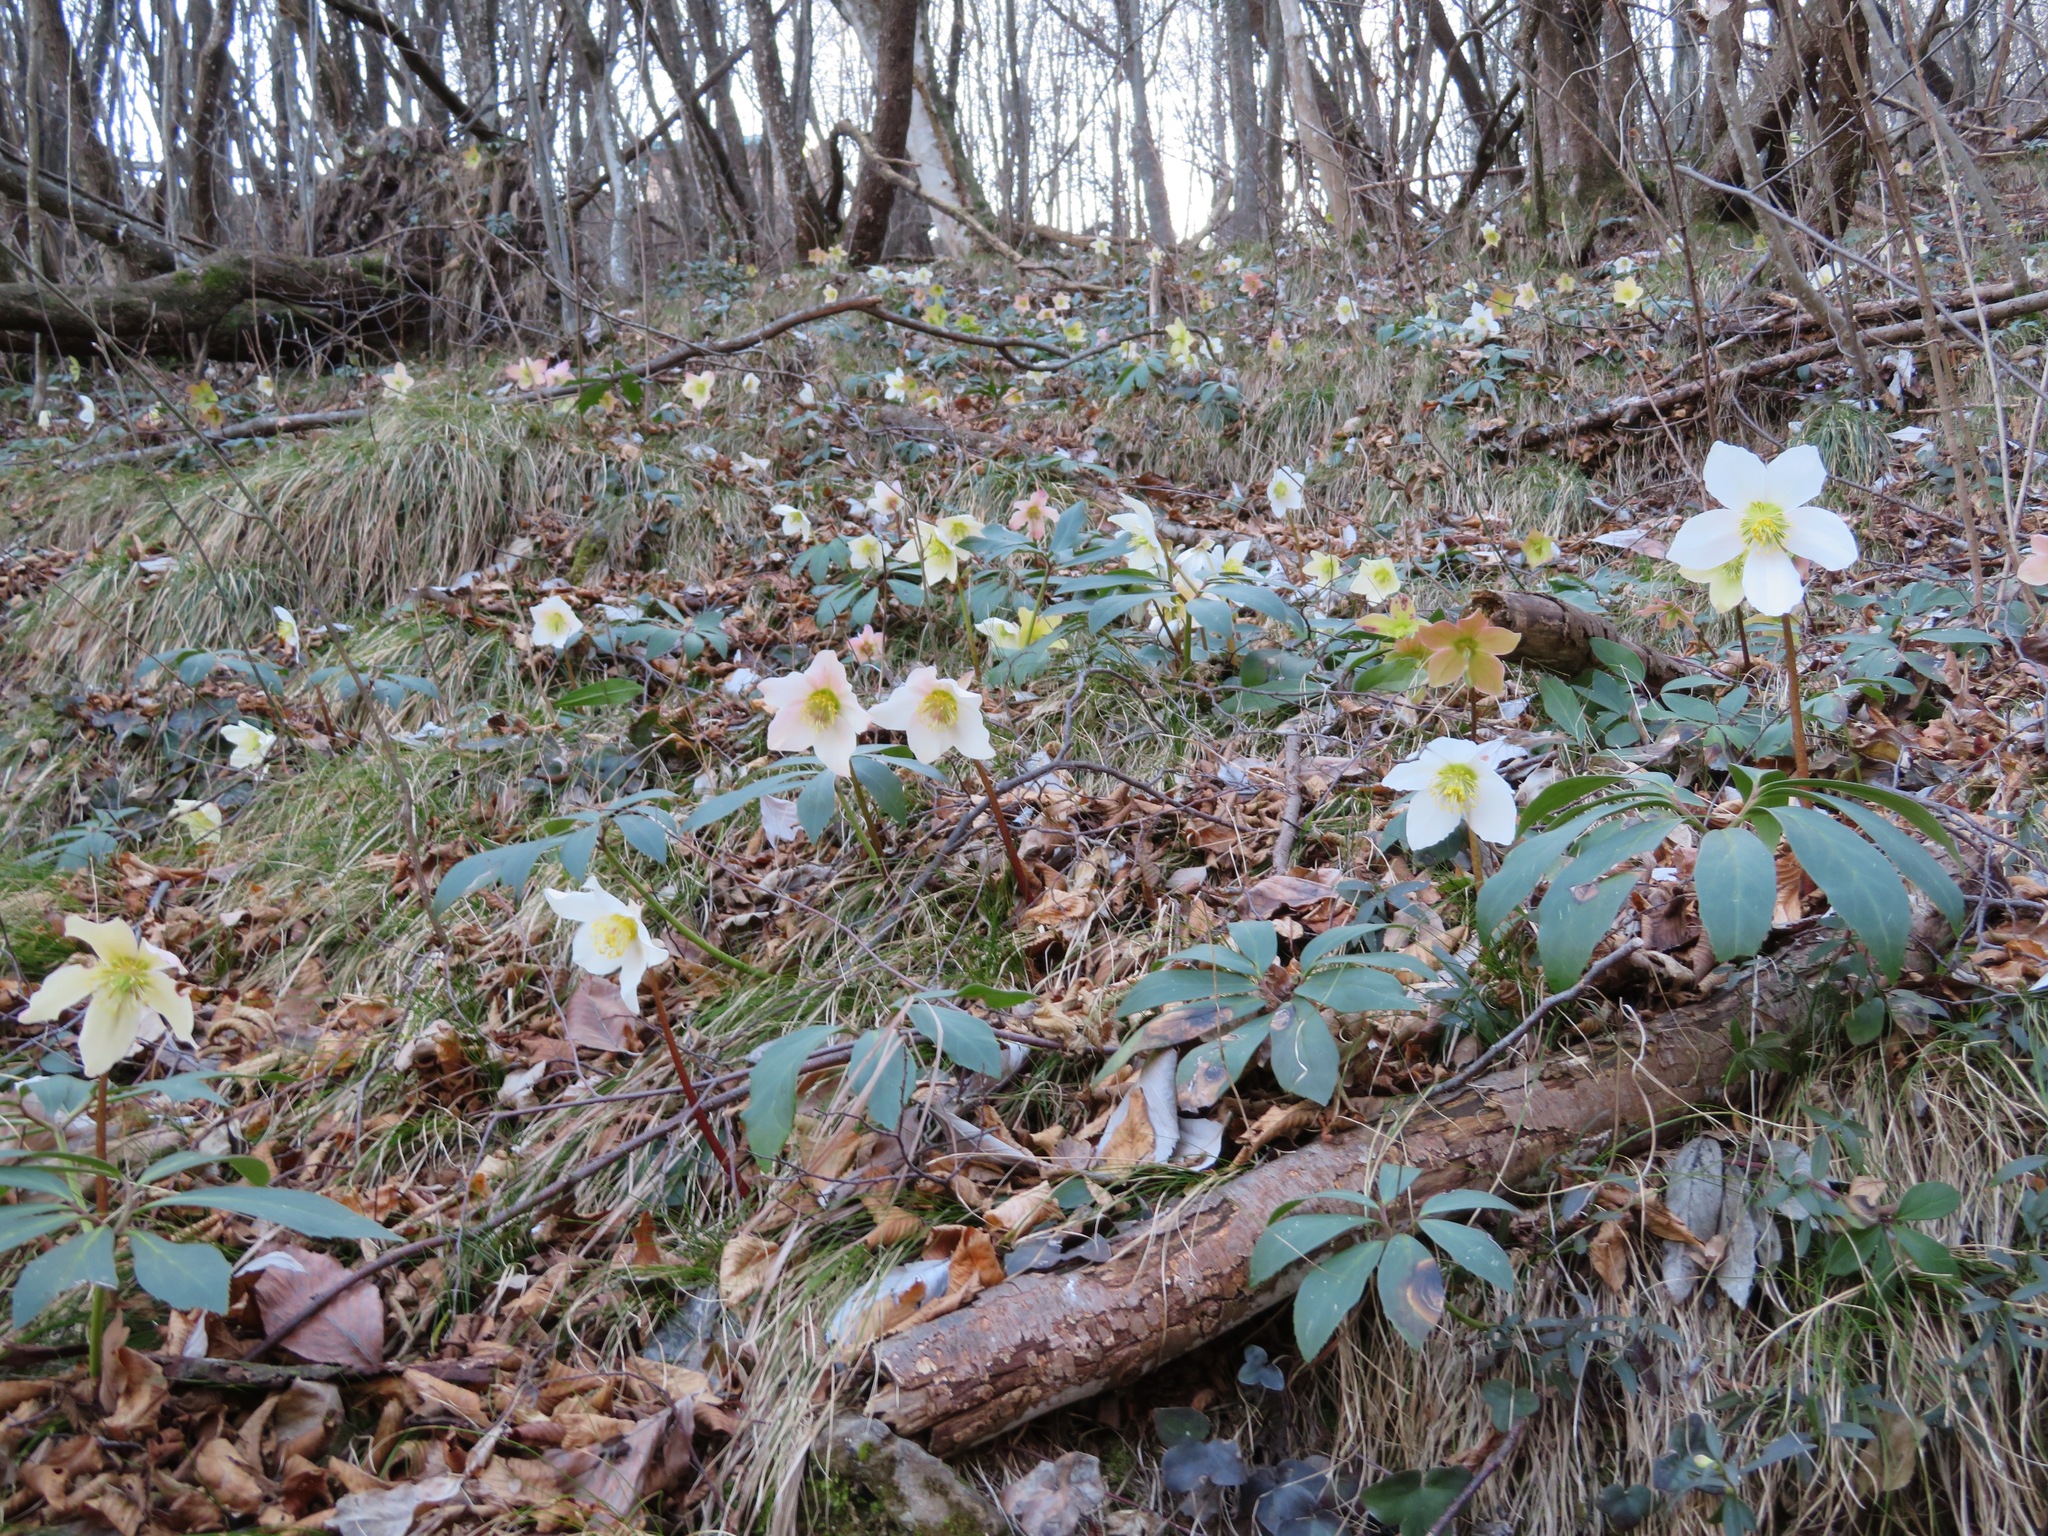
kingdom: Plantae
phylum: Tracheophyta
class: Magnoliopsida
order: Ranunculales
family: Ranunculaceae
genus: Helleborus
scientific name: Helleborus niger
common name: Black hellebore
